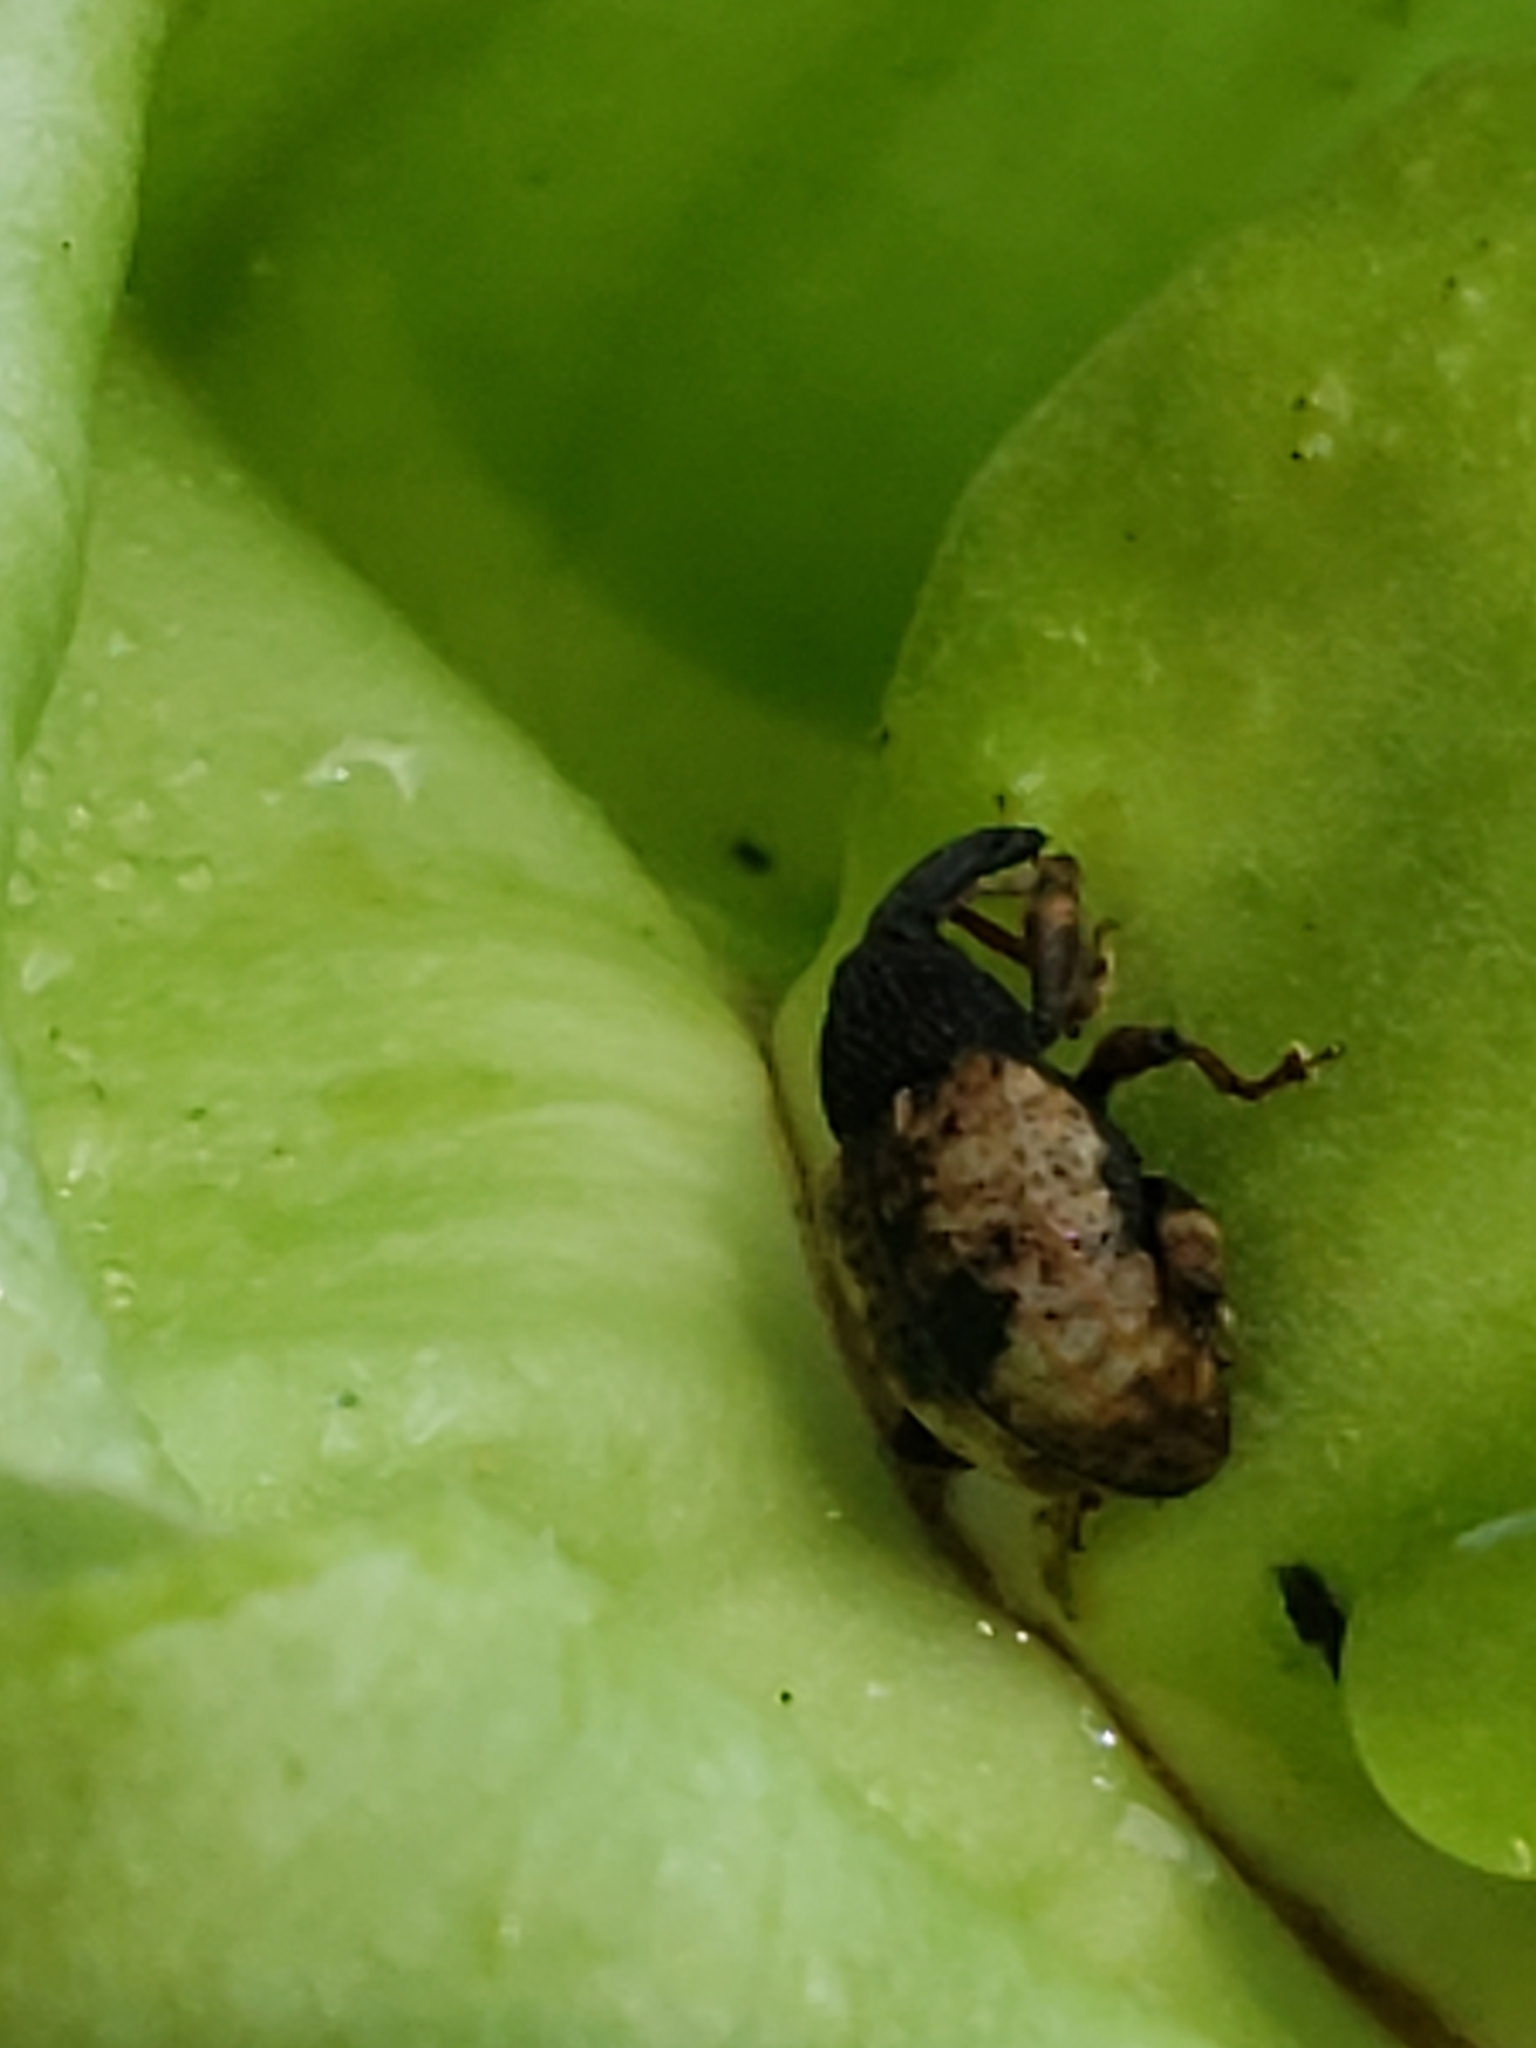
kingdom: Animalia
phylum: Arthropoda
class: Insecta
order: Coleoptera
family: Curculionidae
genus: Conotrachelus
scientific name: Conotrachelus fissunguis
